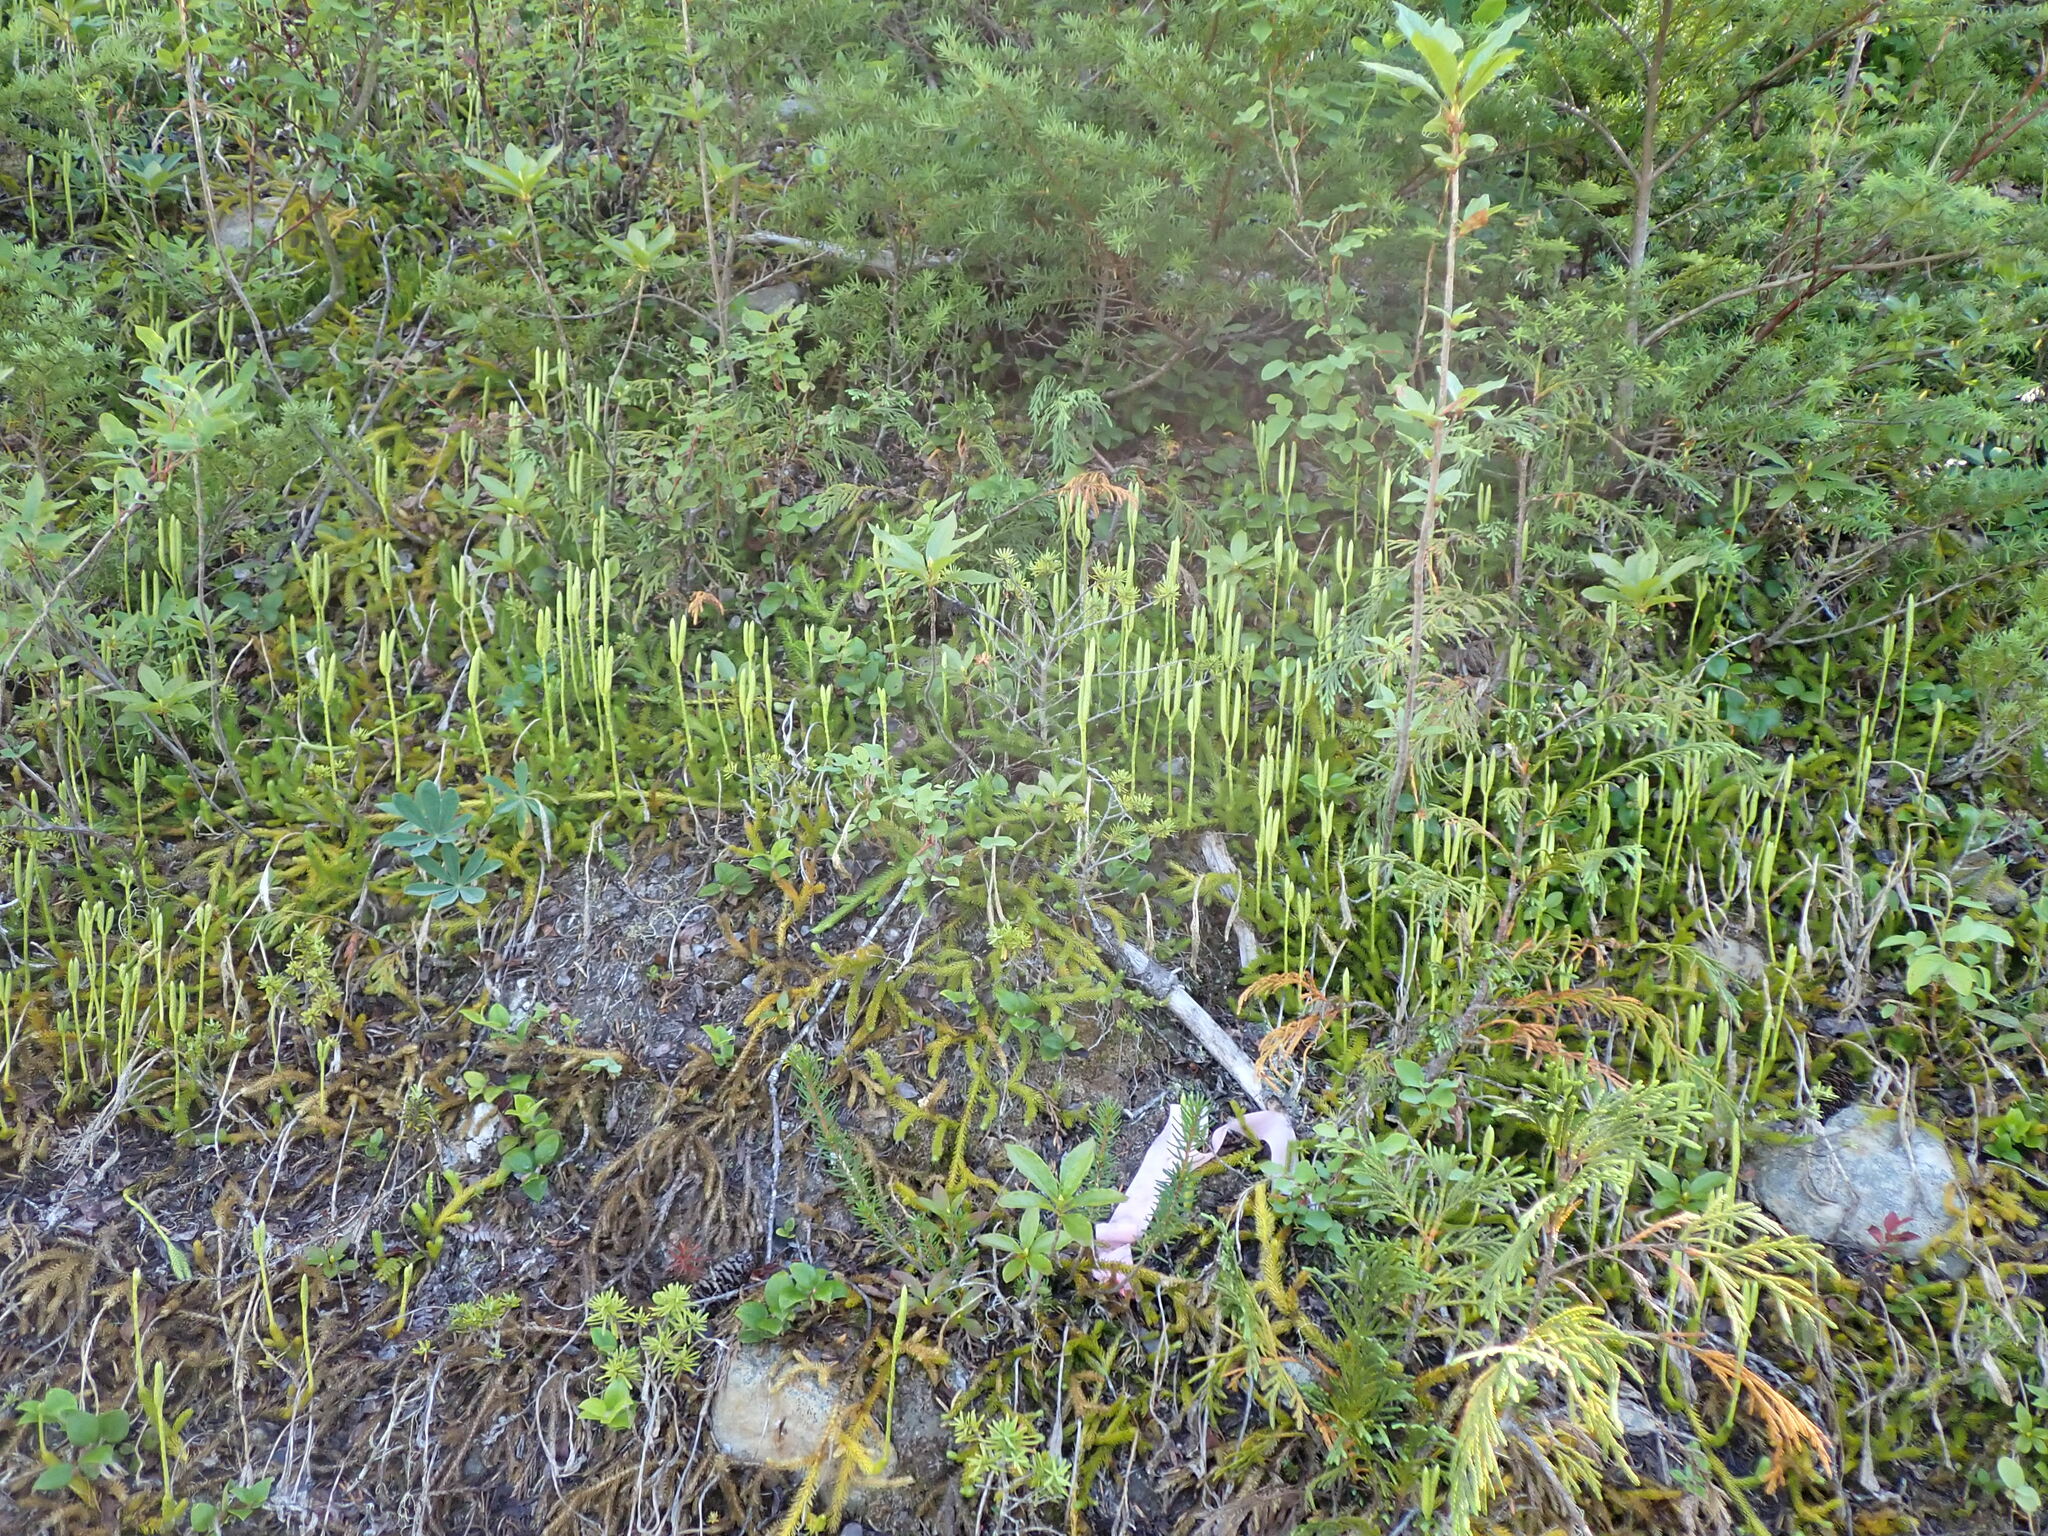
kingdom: Plantae
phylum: Tracheophyta
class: Lycopodiopsida
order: Lycopodiales
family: Lycopodiaceae
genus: Lycopodium
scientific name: Lycopodium clavatum
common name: Stag's-horn clubmoss
